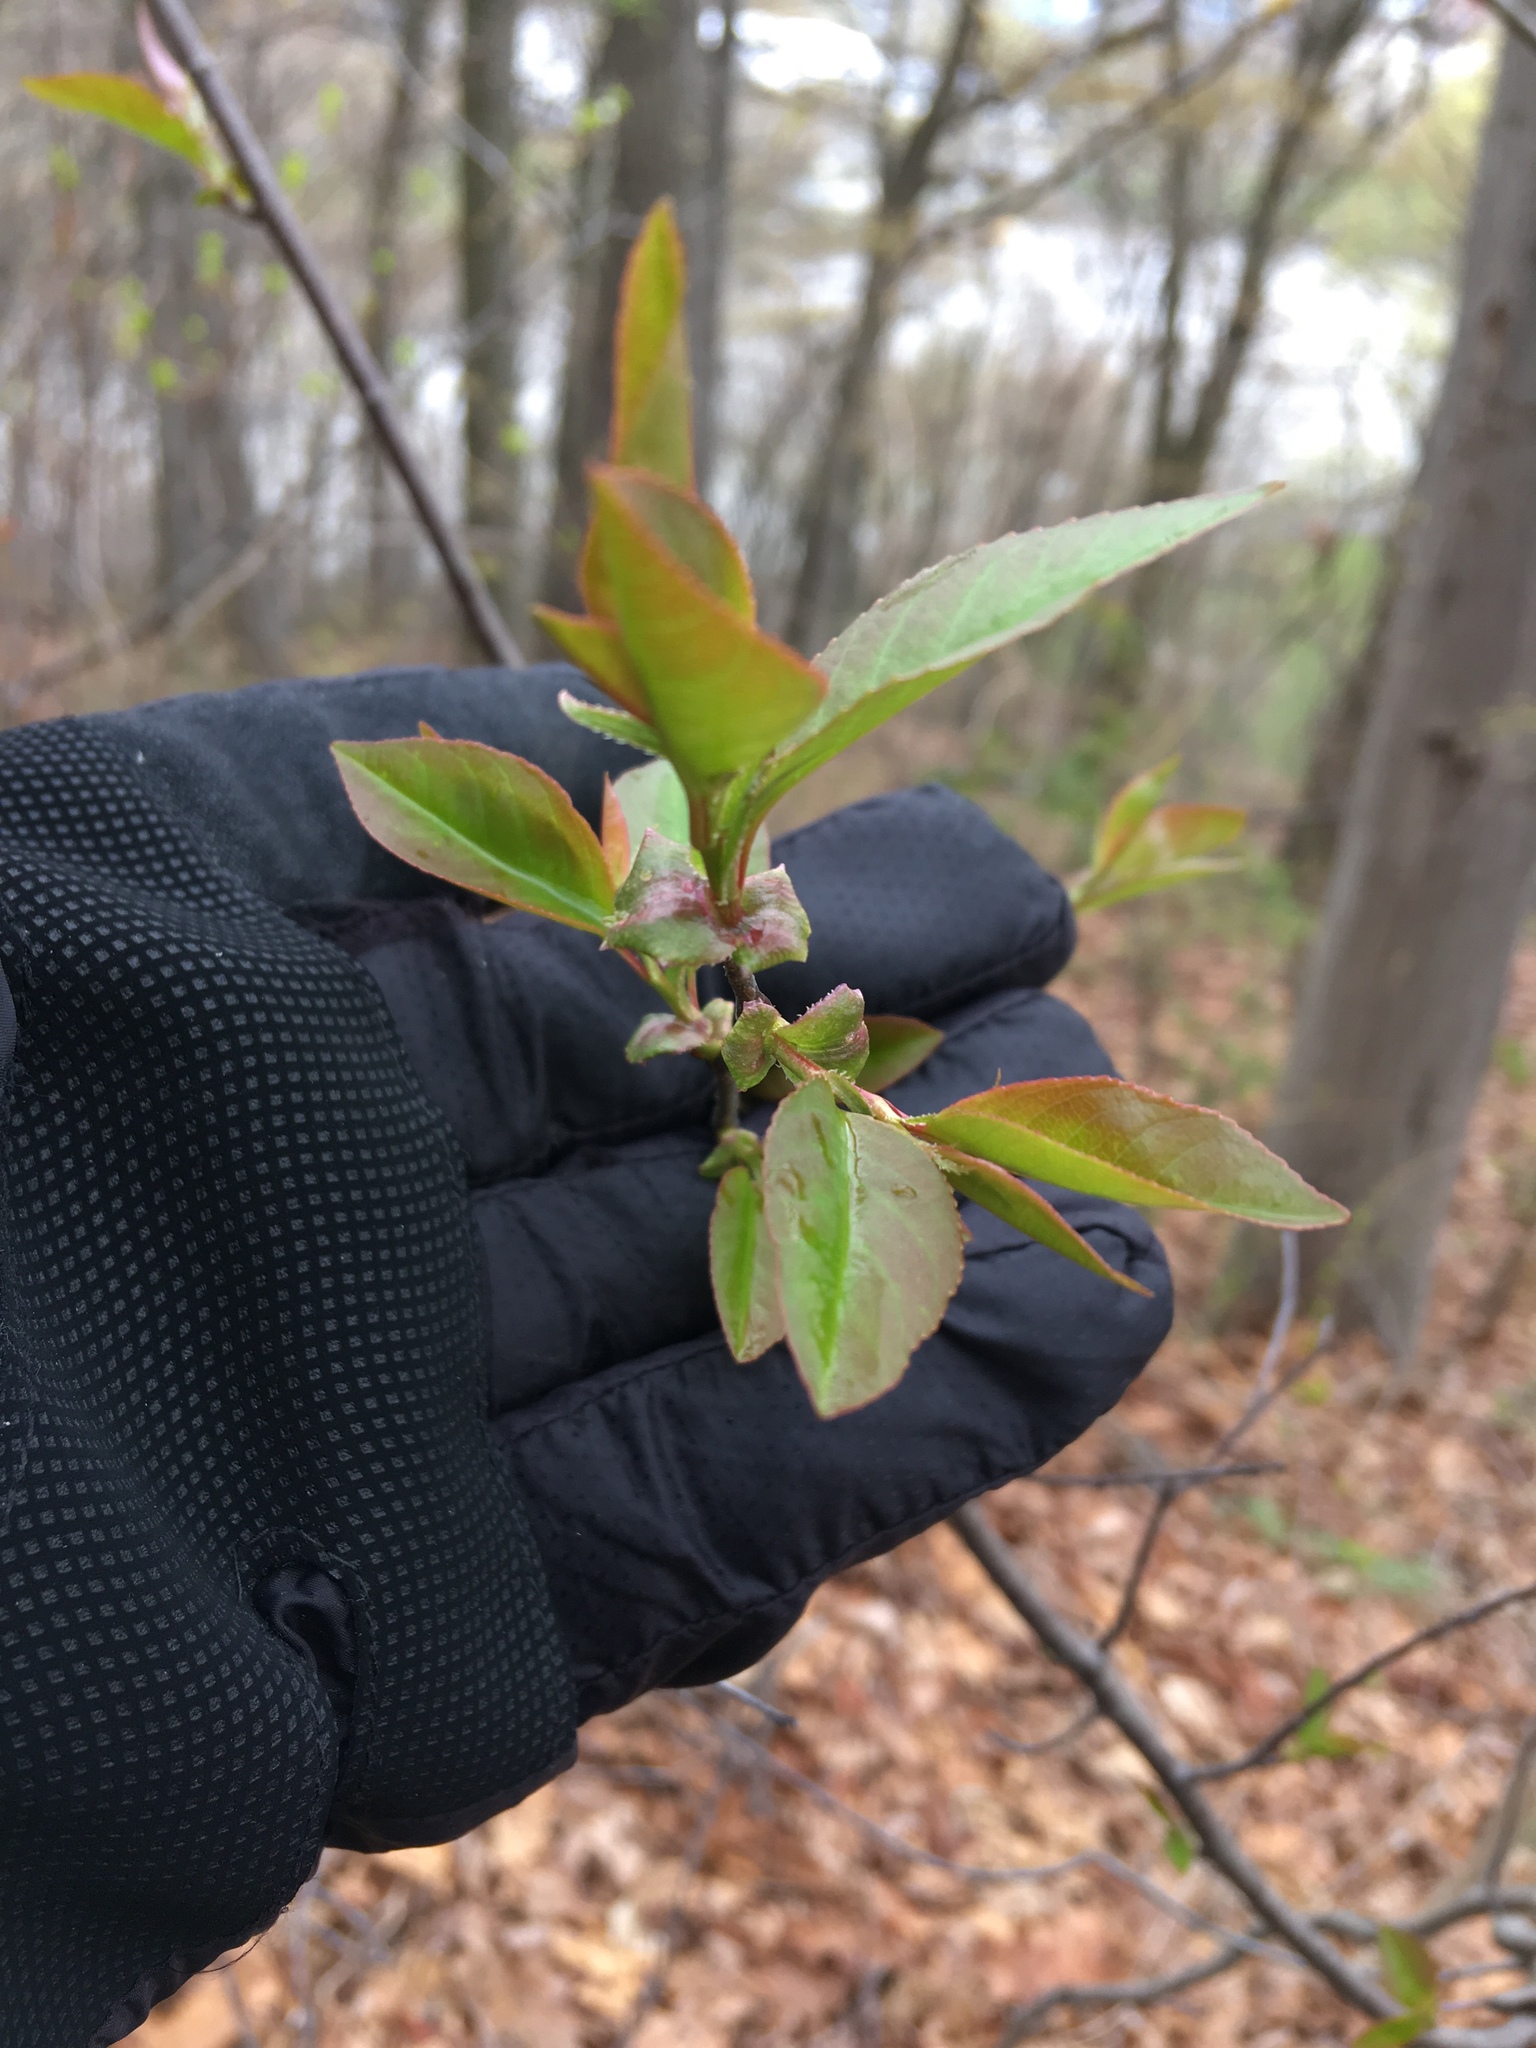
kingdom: Plantae
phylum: Tracheophyta
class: Magnoliopsida
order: Rosales
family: Rosaceae
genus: Prunus
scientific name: Prunus serotina
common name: Black cherry
